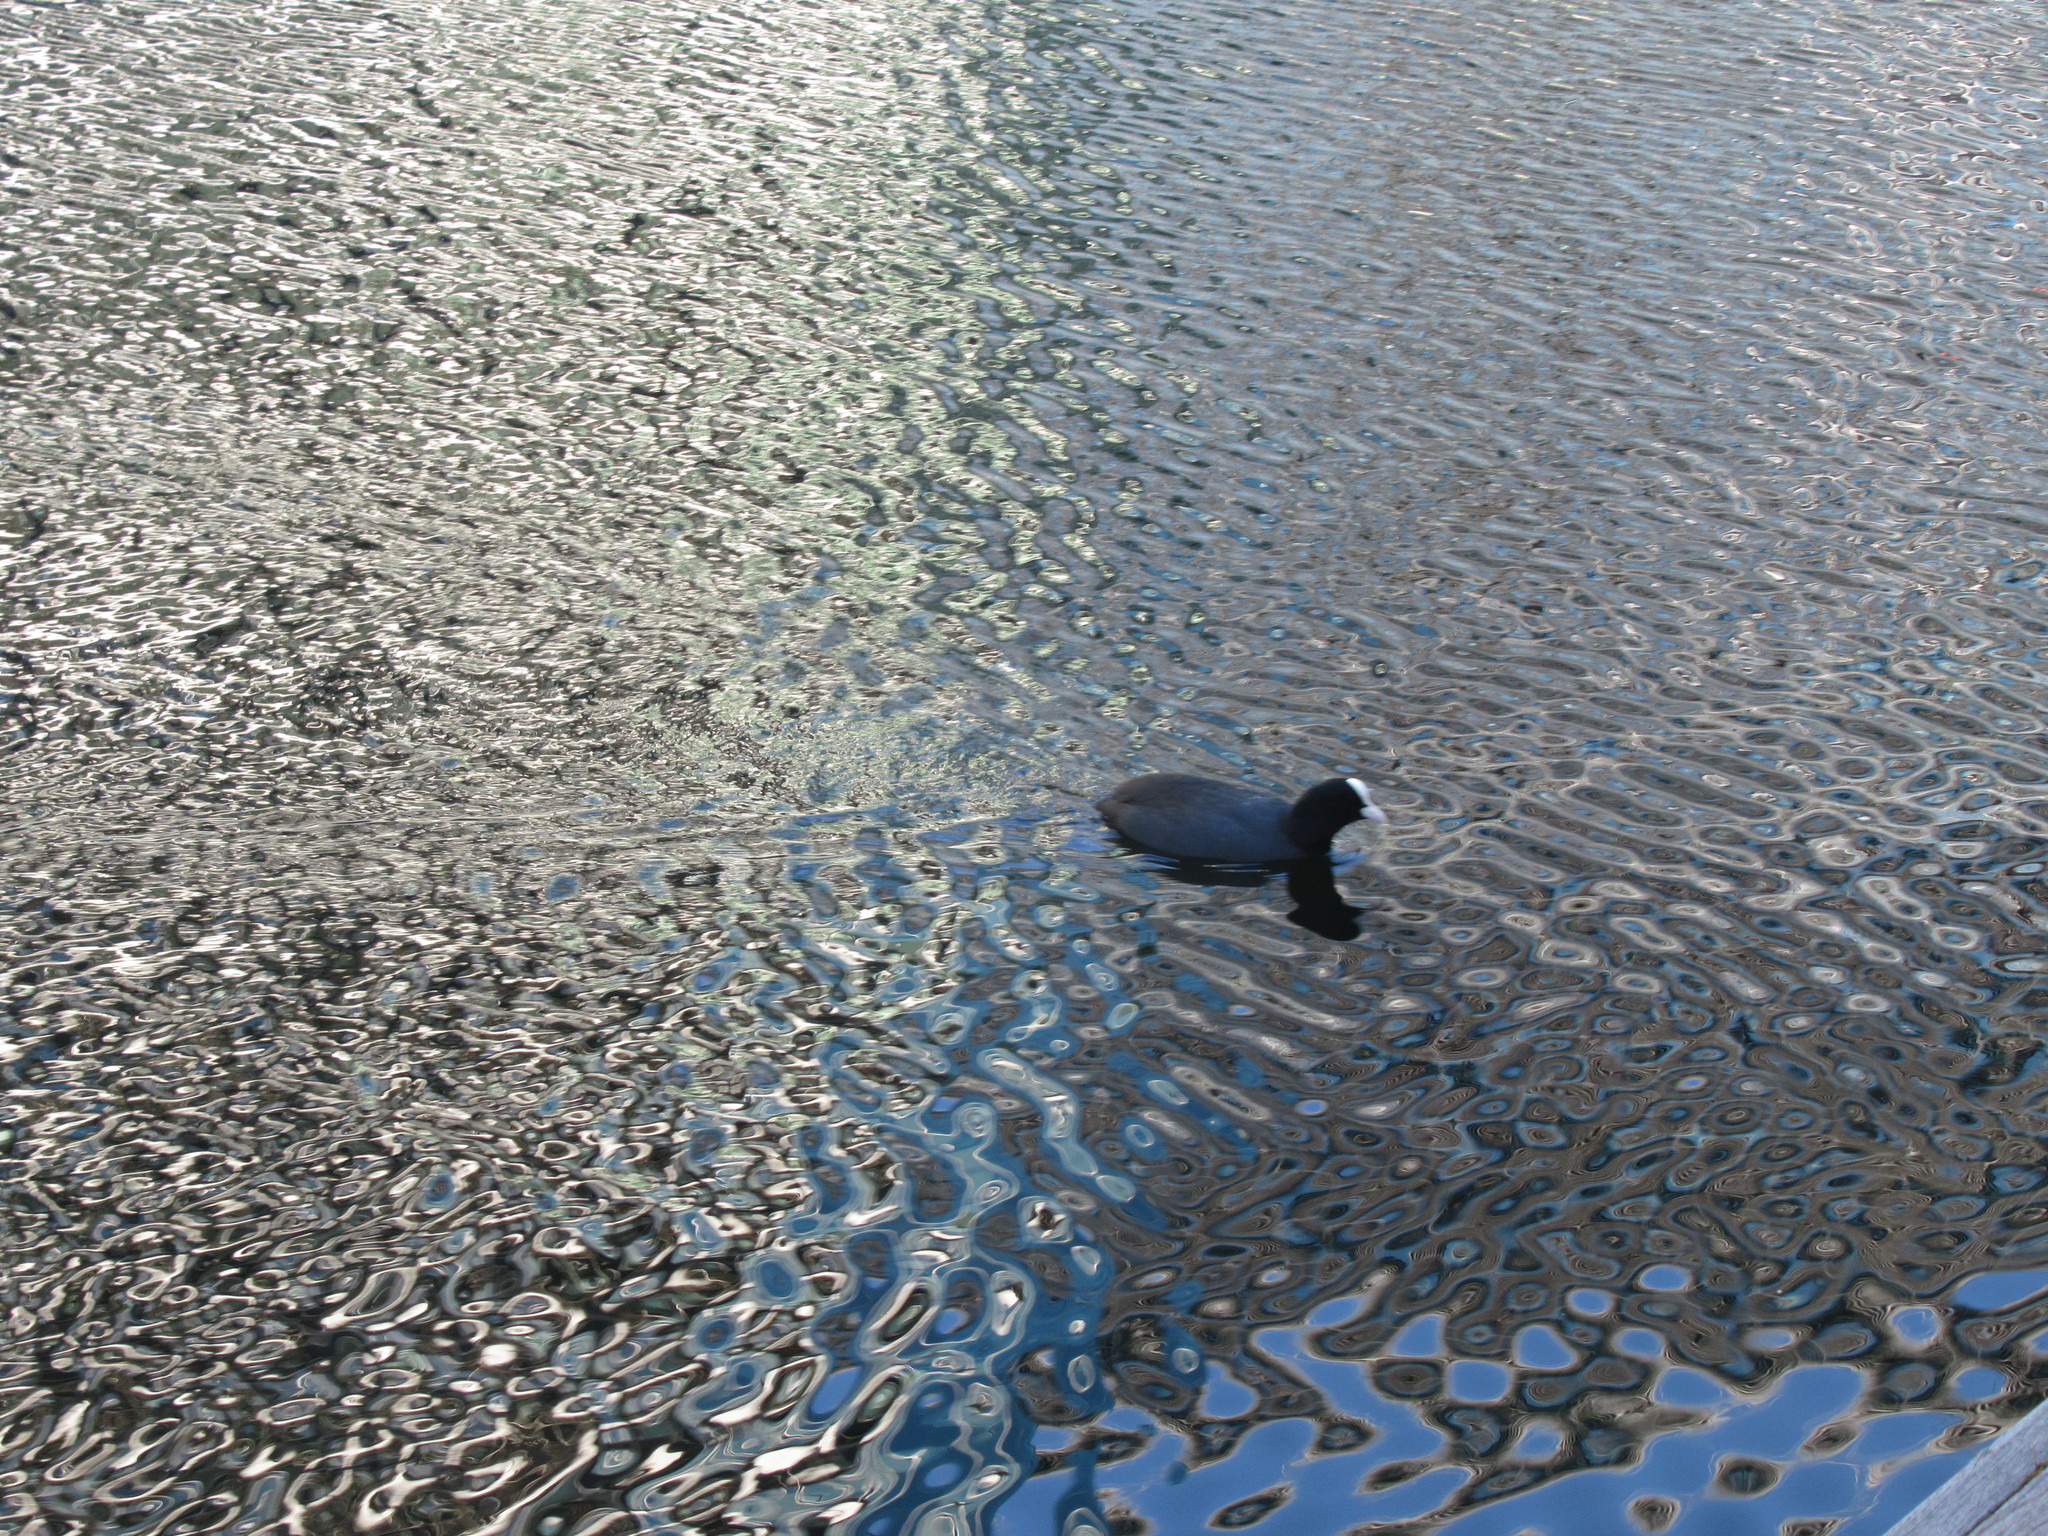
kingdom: Animalia
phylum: Chordata
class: Aves
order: Gruiformes
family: Rallidae
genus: Fulica
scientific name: Fulica atra
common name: Eurasian coot
